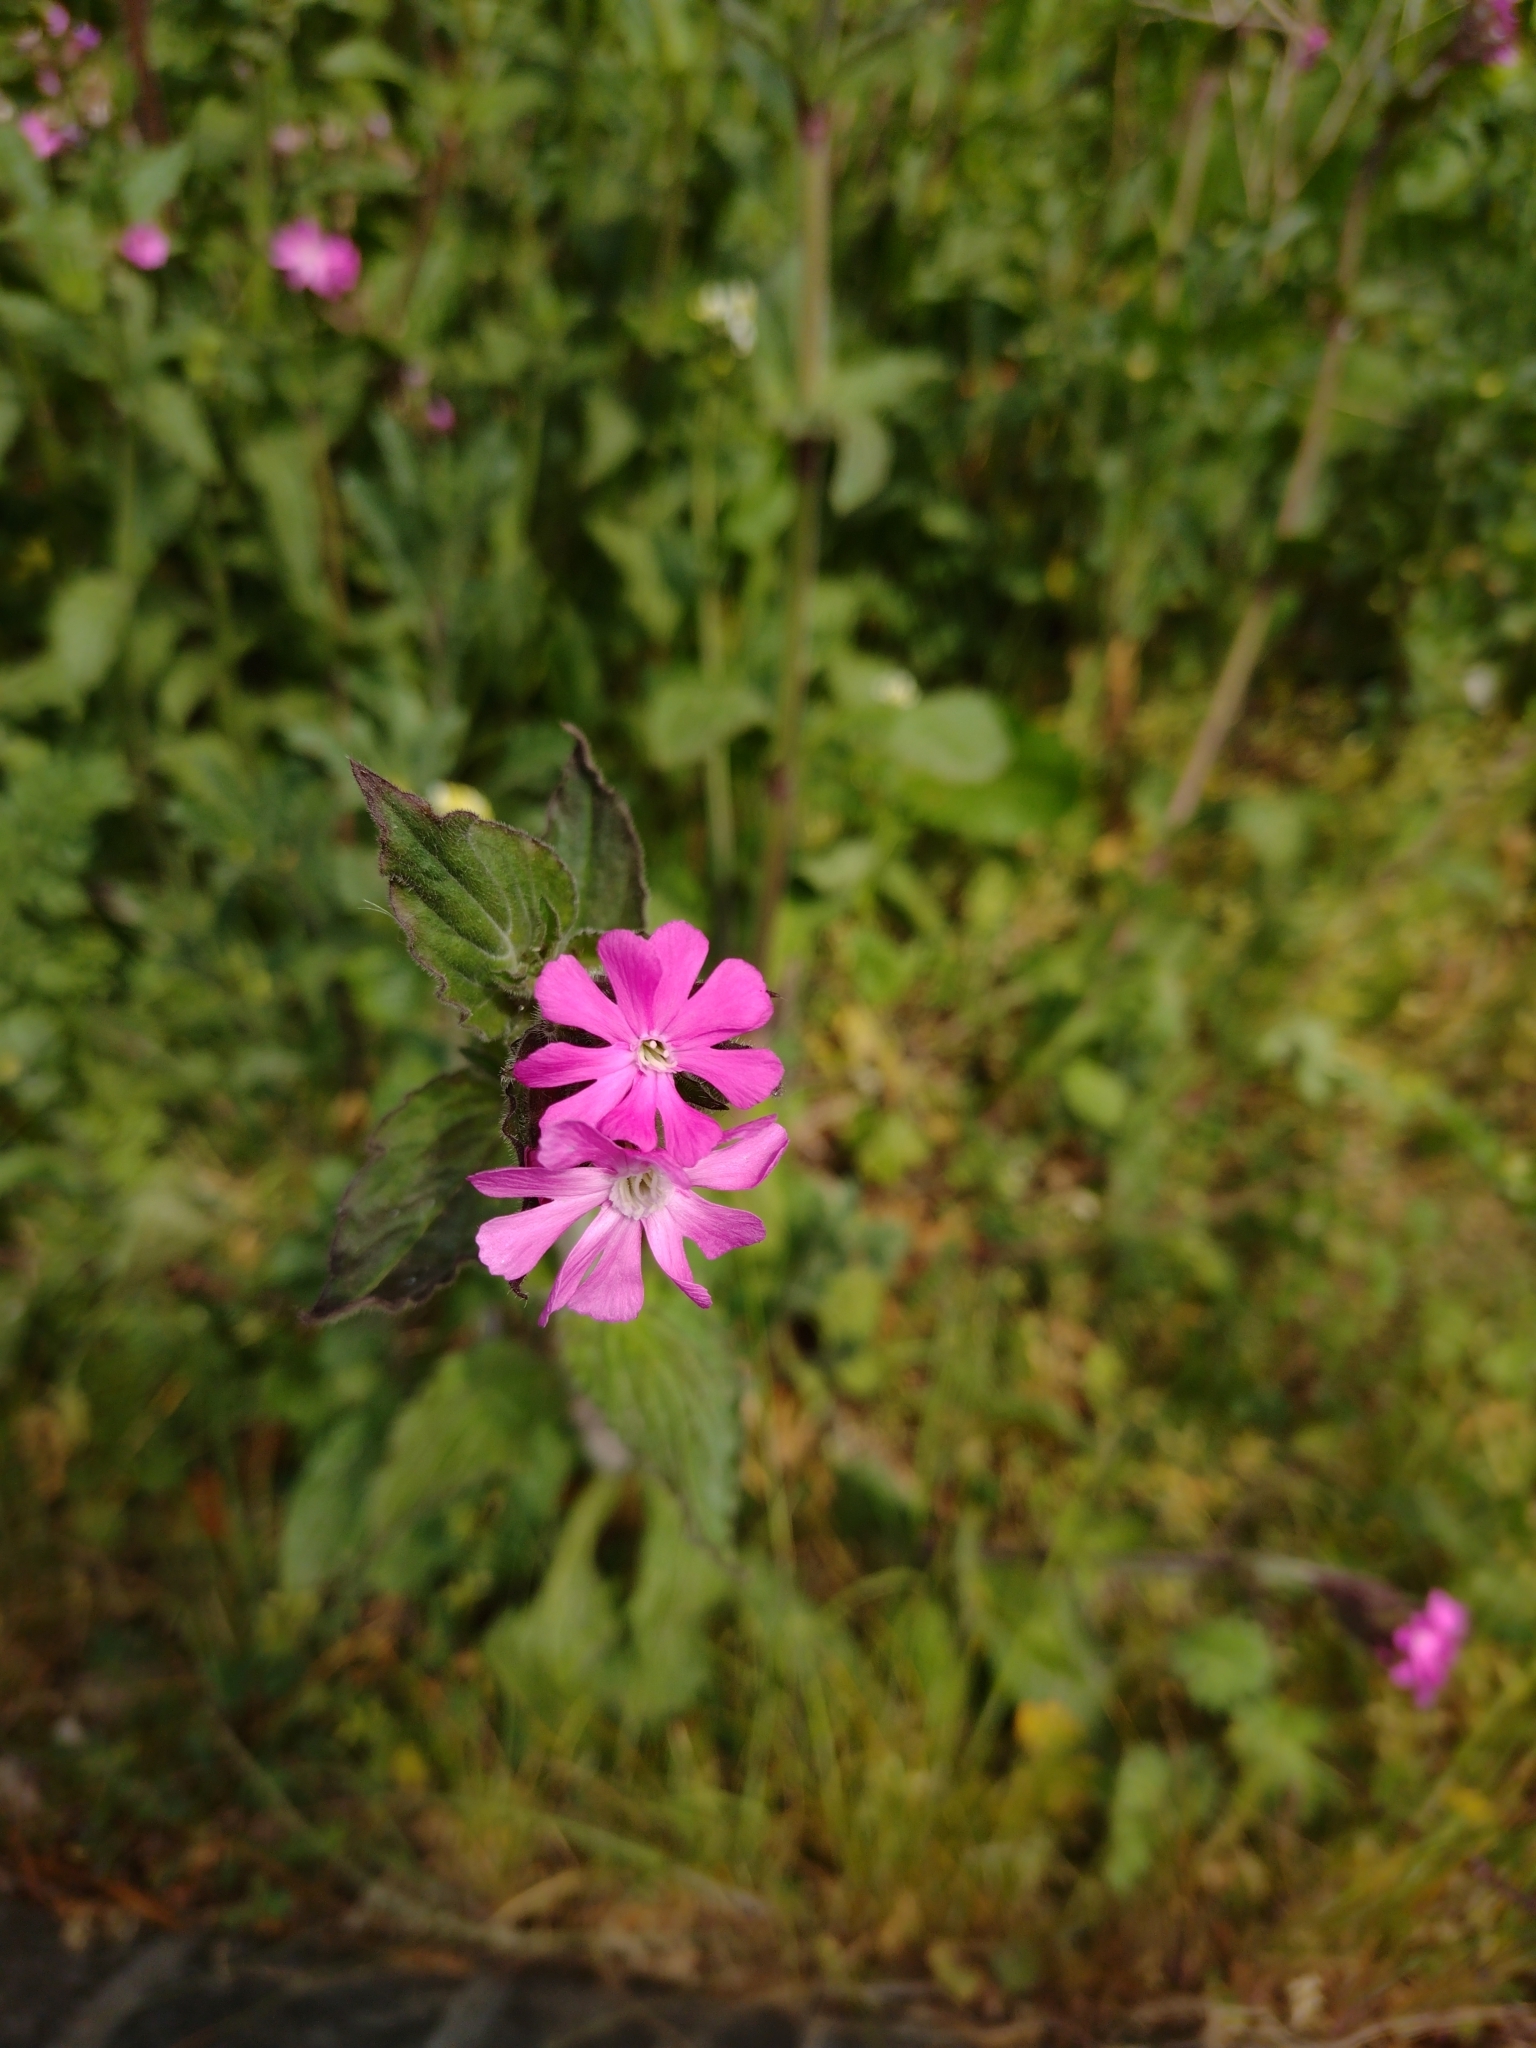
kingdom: Plantae
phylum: Tracheophyta
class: Magnoliopsida
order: Caryophyllales
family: Caryophyllaceae
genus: Silene
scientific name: Silene dioica
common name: Red campion
